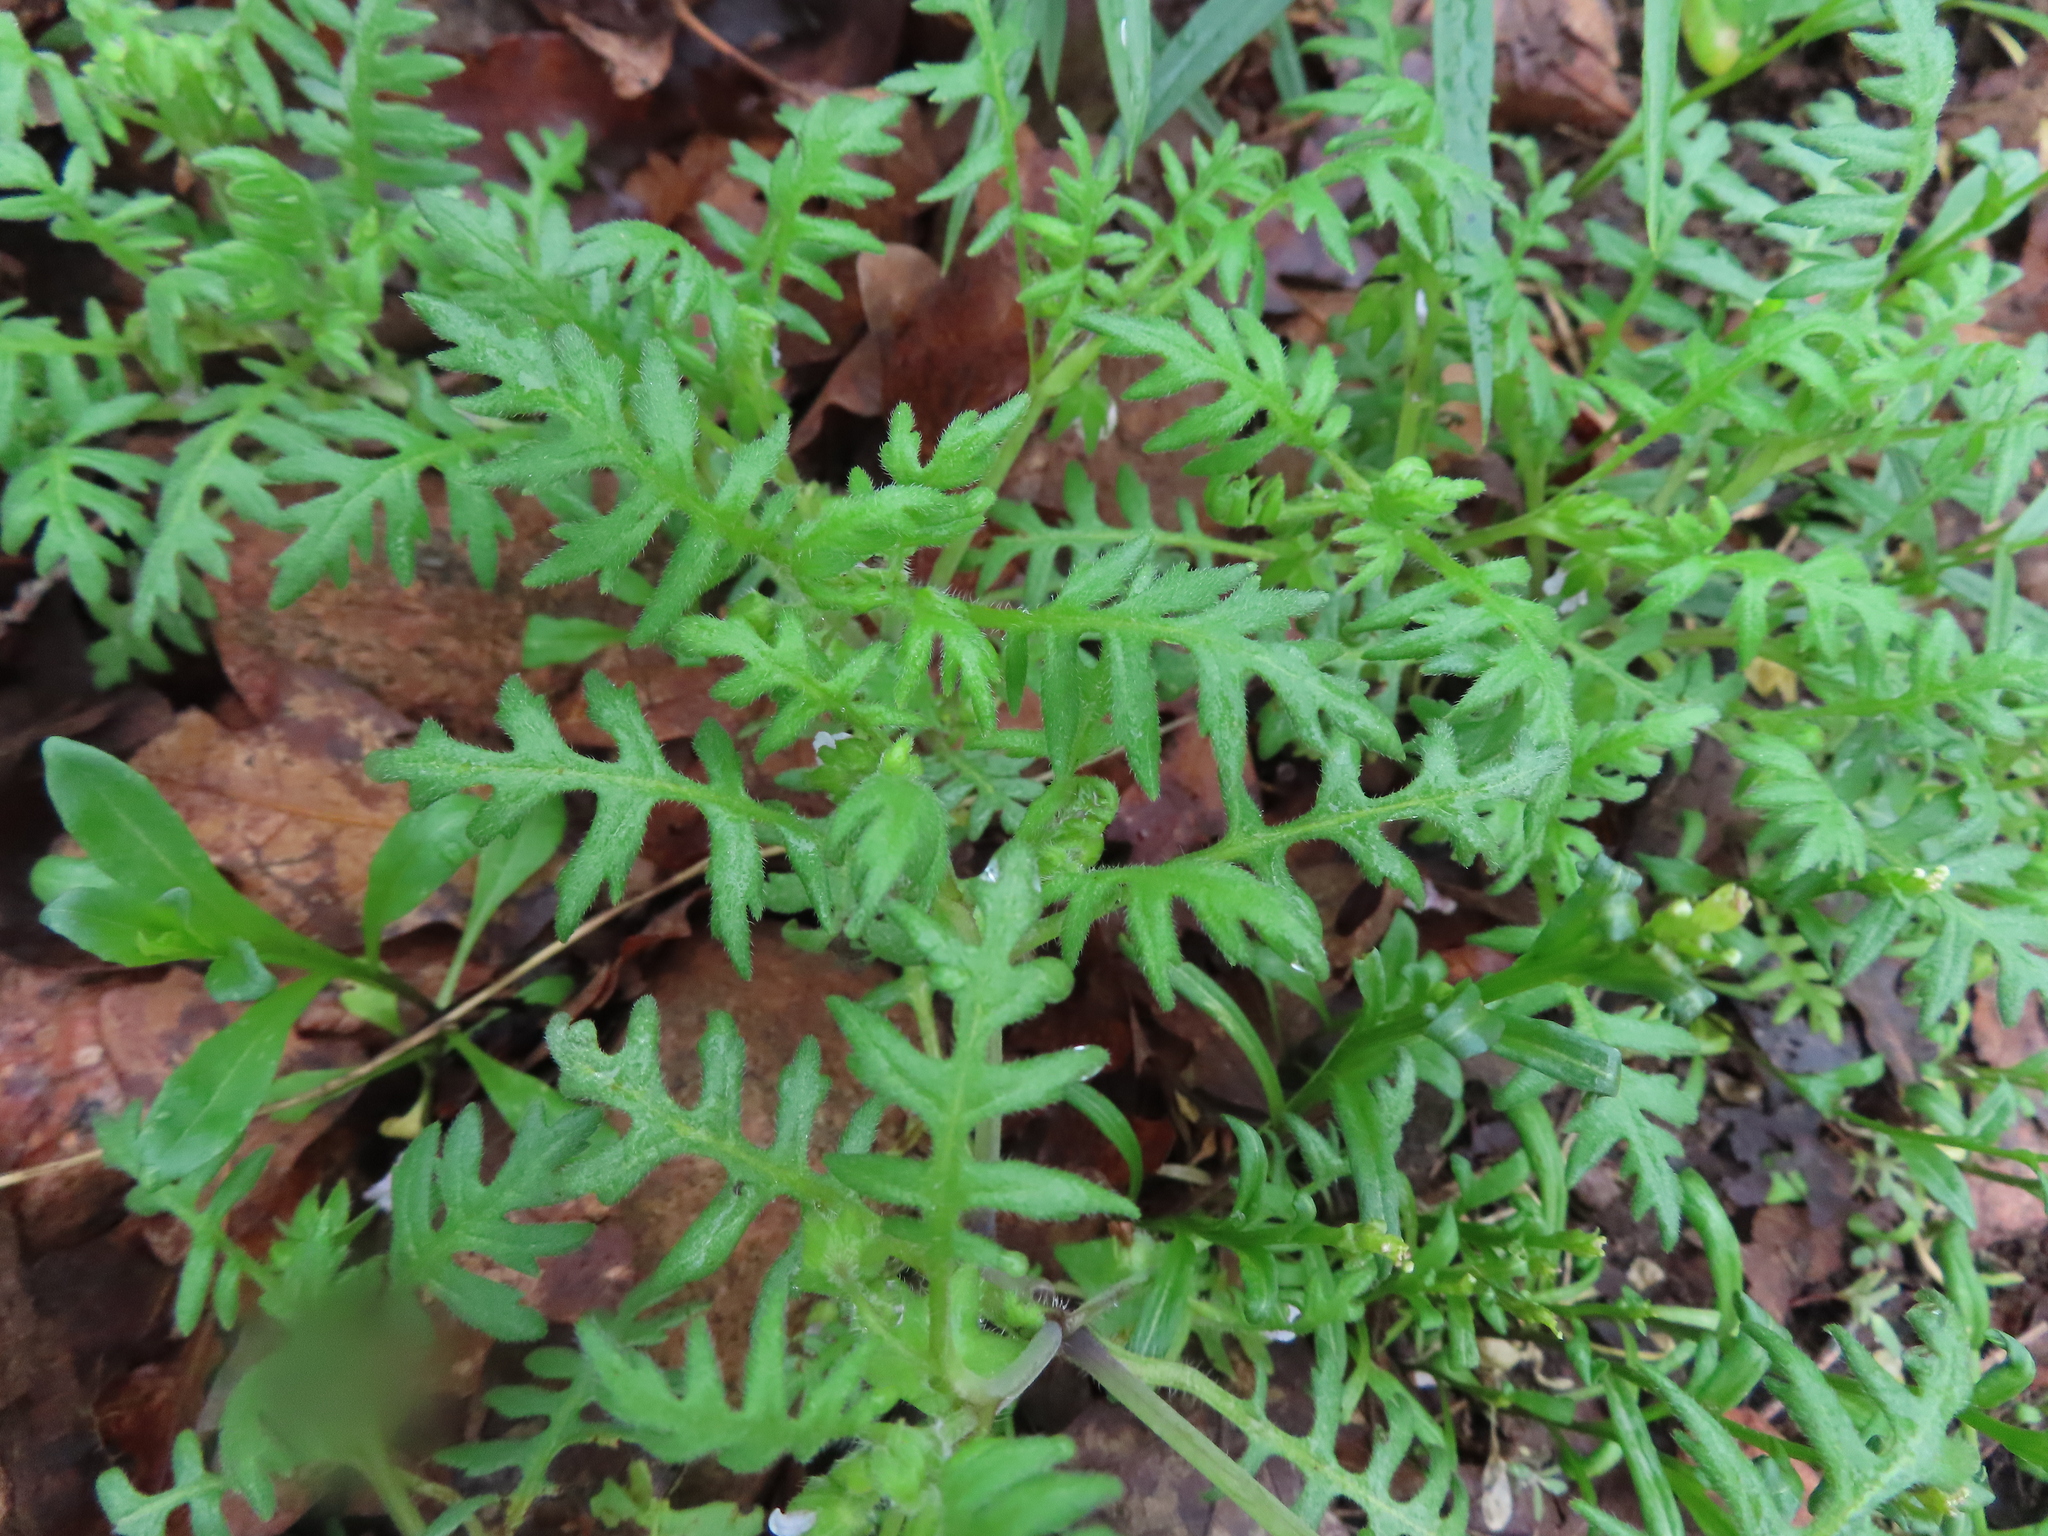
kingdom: Plantae
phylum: Tracheophyta
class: Magnoliopsida
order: Boraginales
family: Hydrophyllaceae
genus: Ellisia
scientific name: Ellisia nyctelea
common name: Aunt lucy
